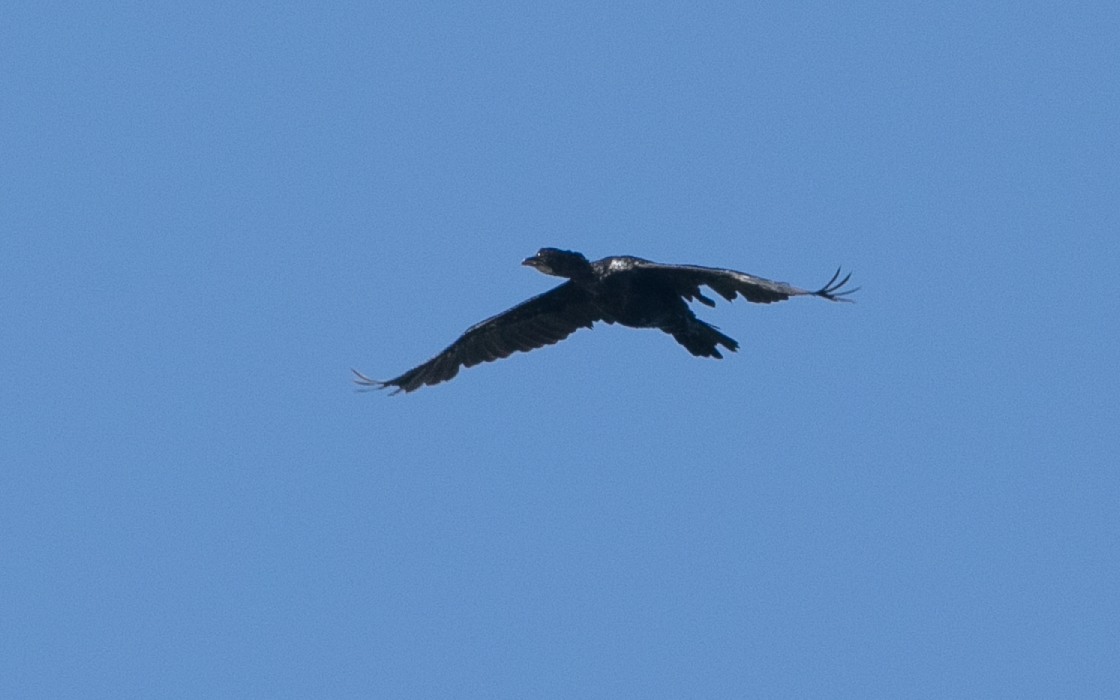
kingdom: Animalia
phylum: Chordata
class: Aves
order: Suliformes
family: Phalacrocoracidae
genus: Microcarbo
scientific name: Microcarbo pygmaeus
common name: Pygmy cormorant
